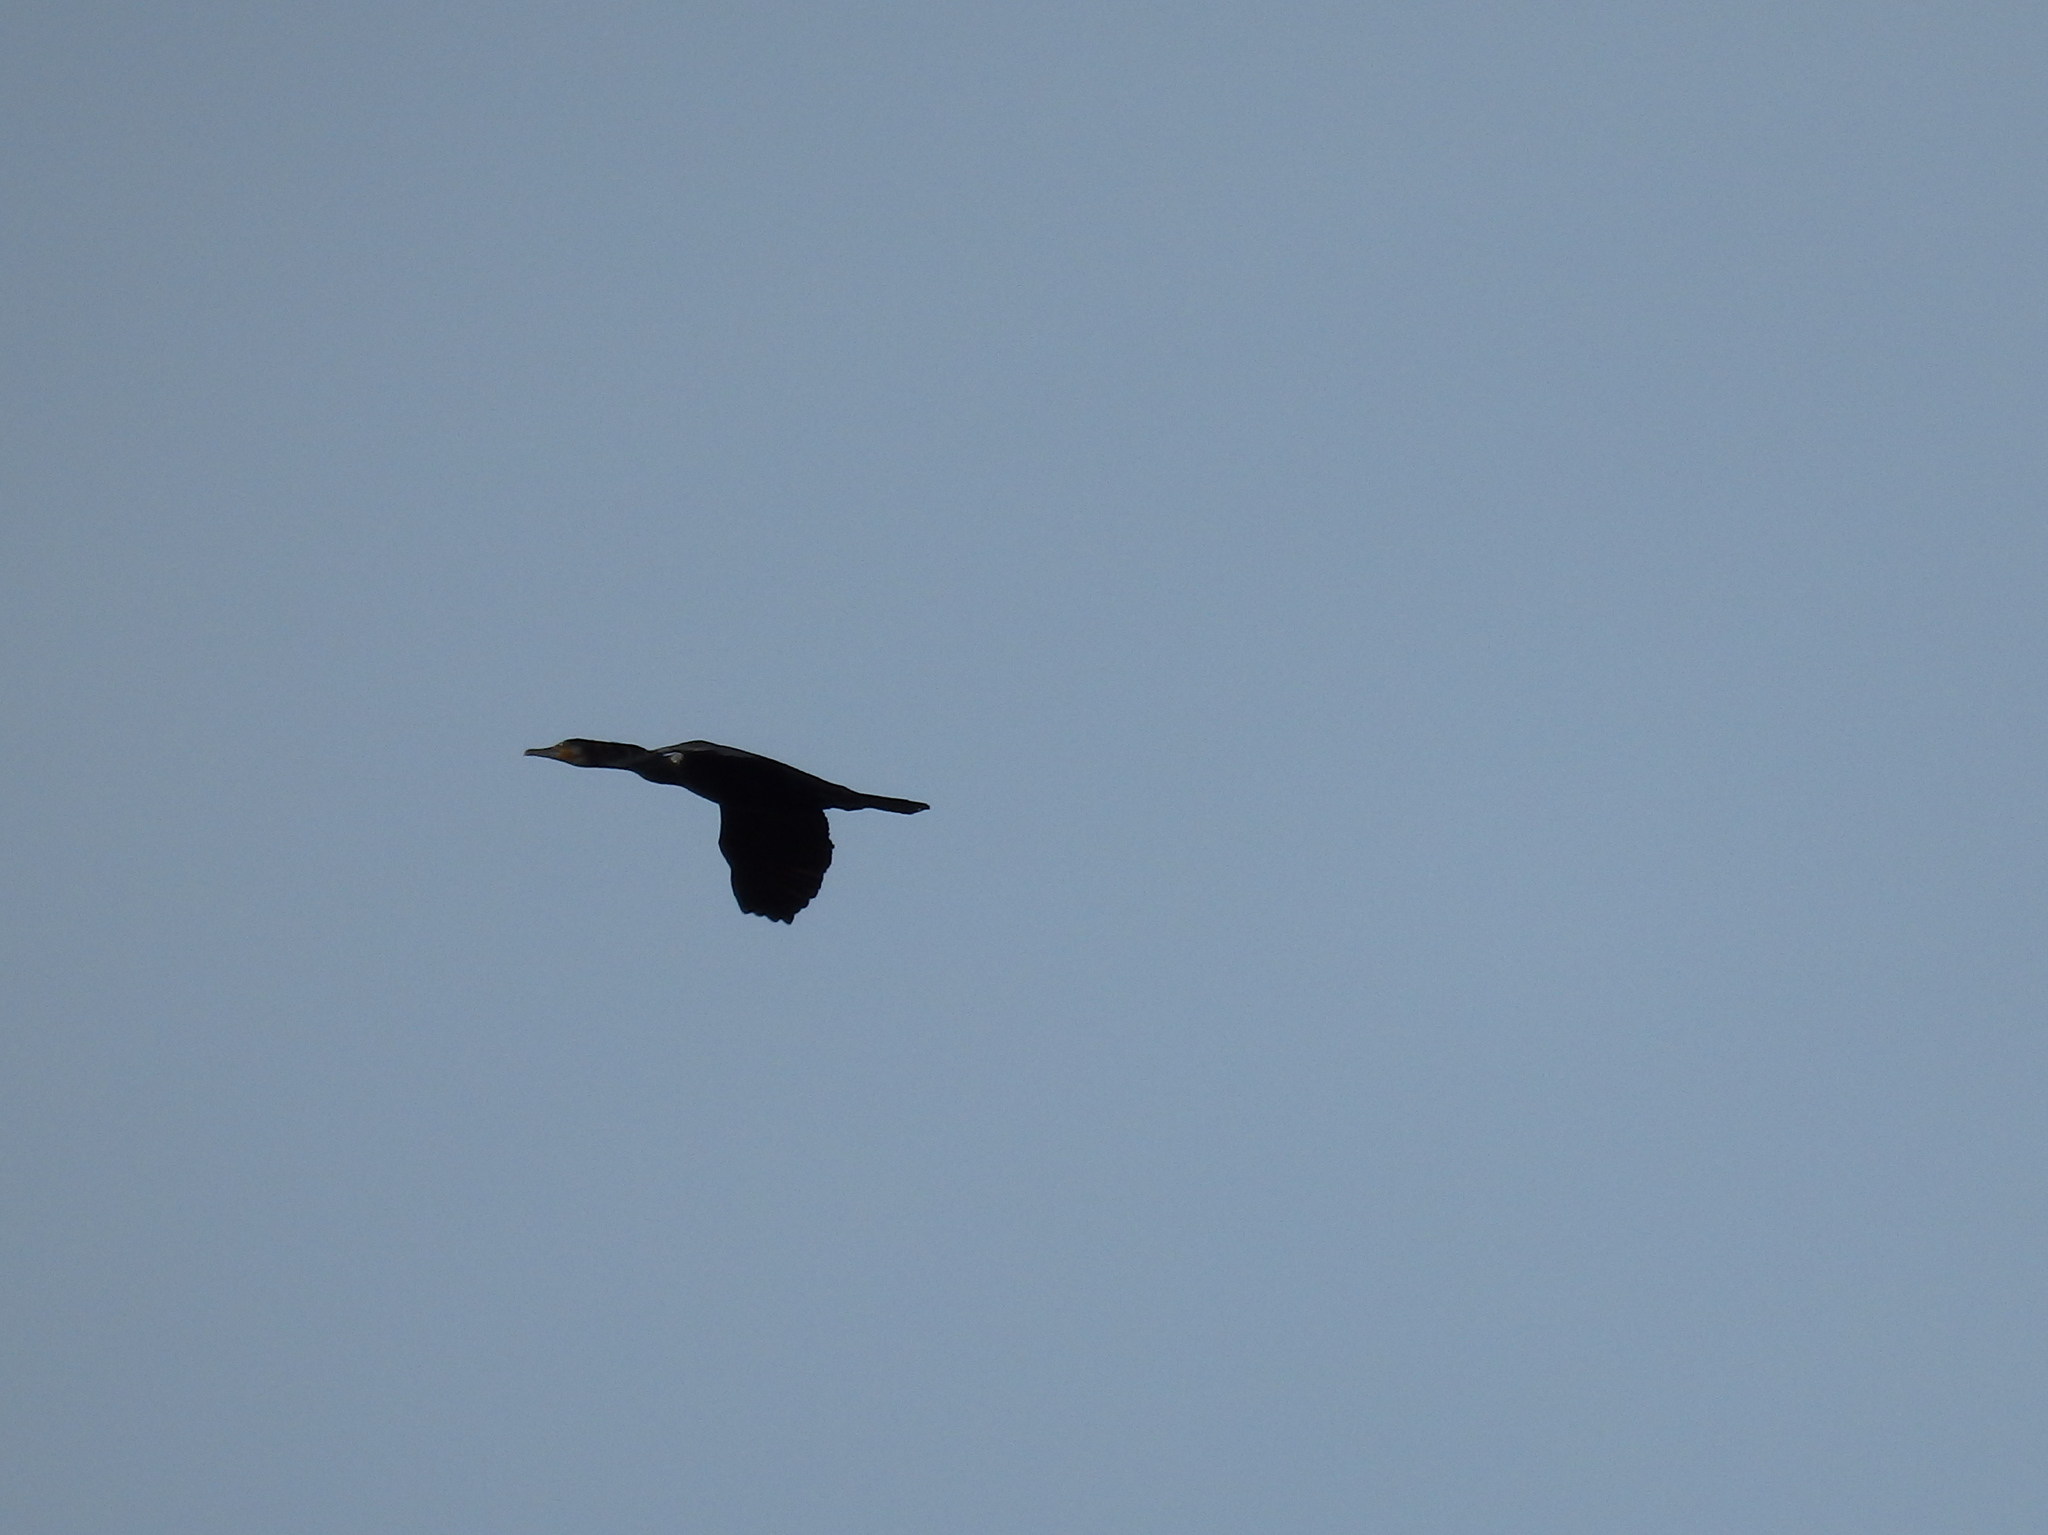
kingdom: Animalia
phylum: Chordata
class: Aves
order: Suliformes
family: Phalacrocoracidae
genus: Phalacrocorax
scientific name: Phalacrocorax carbo
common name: Great cormorant
